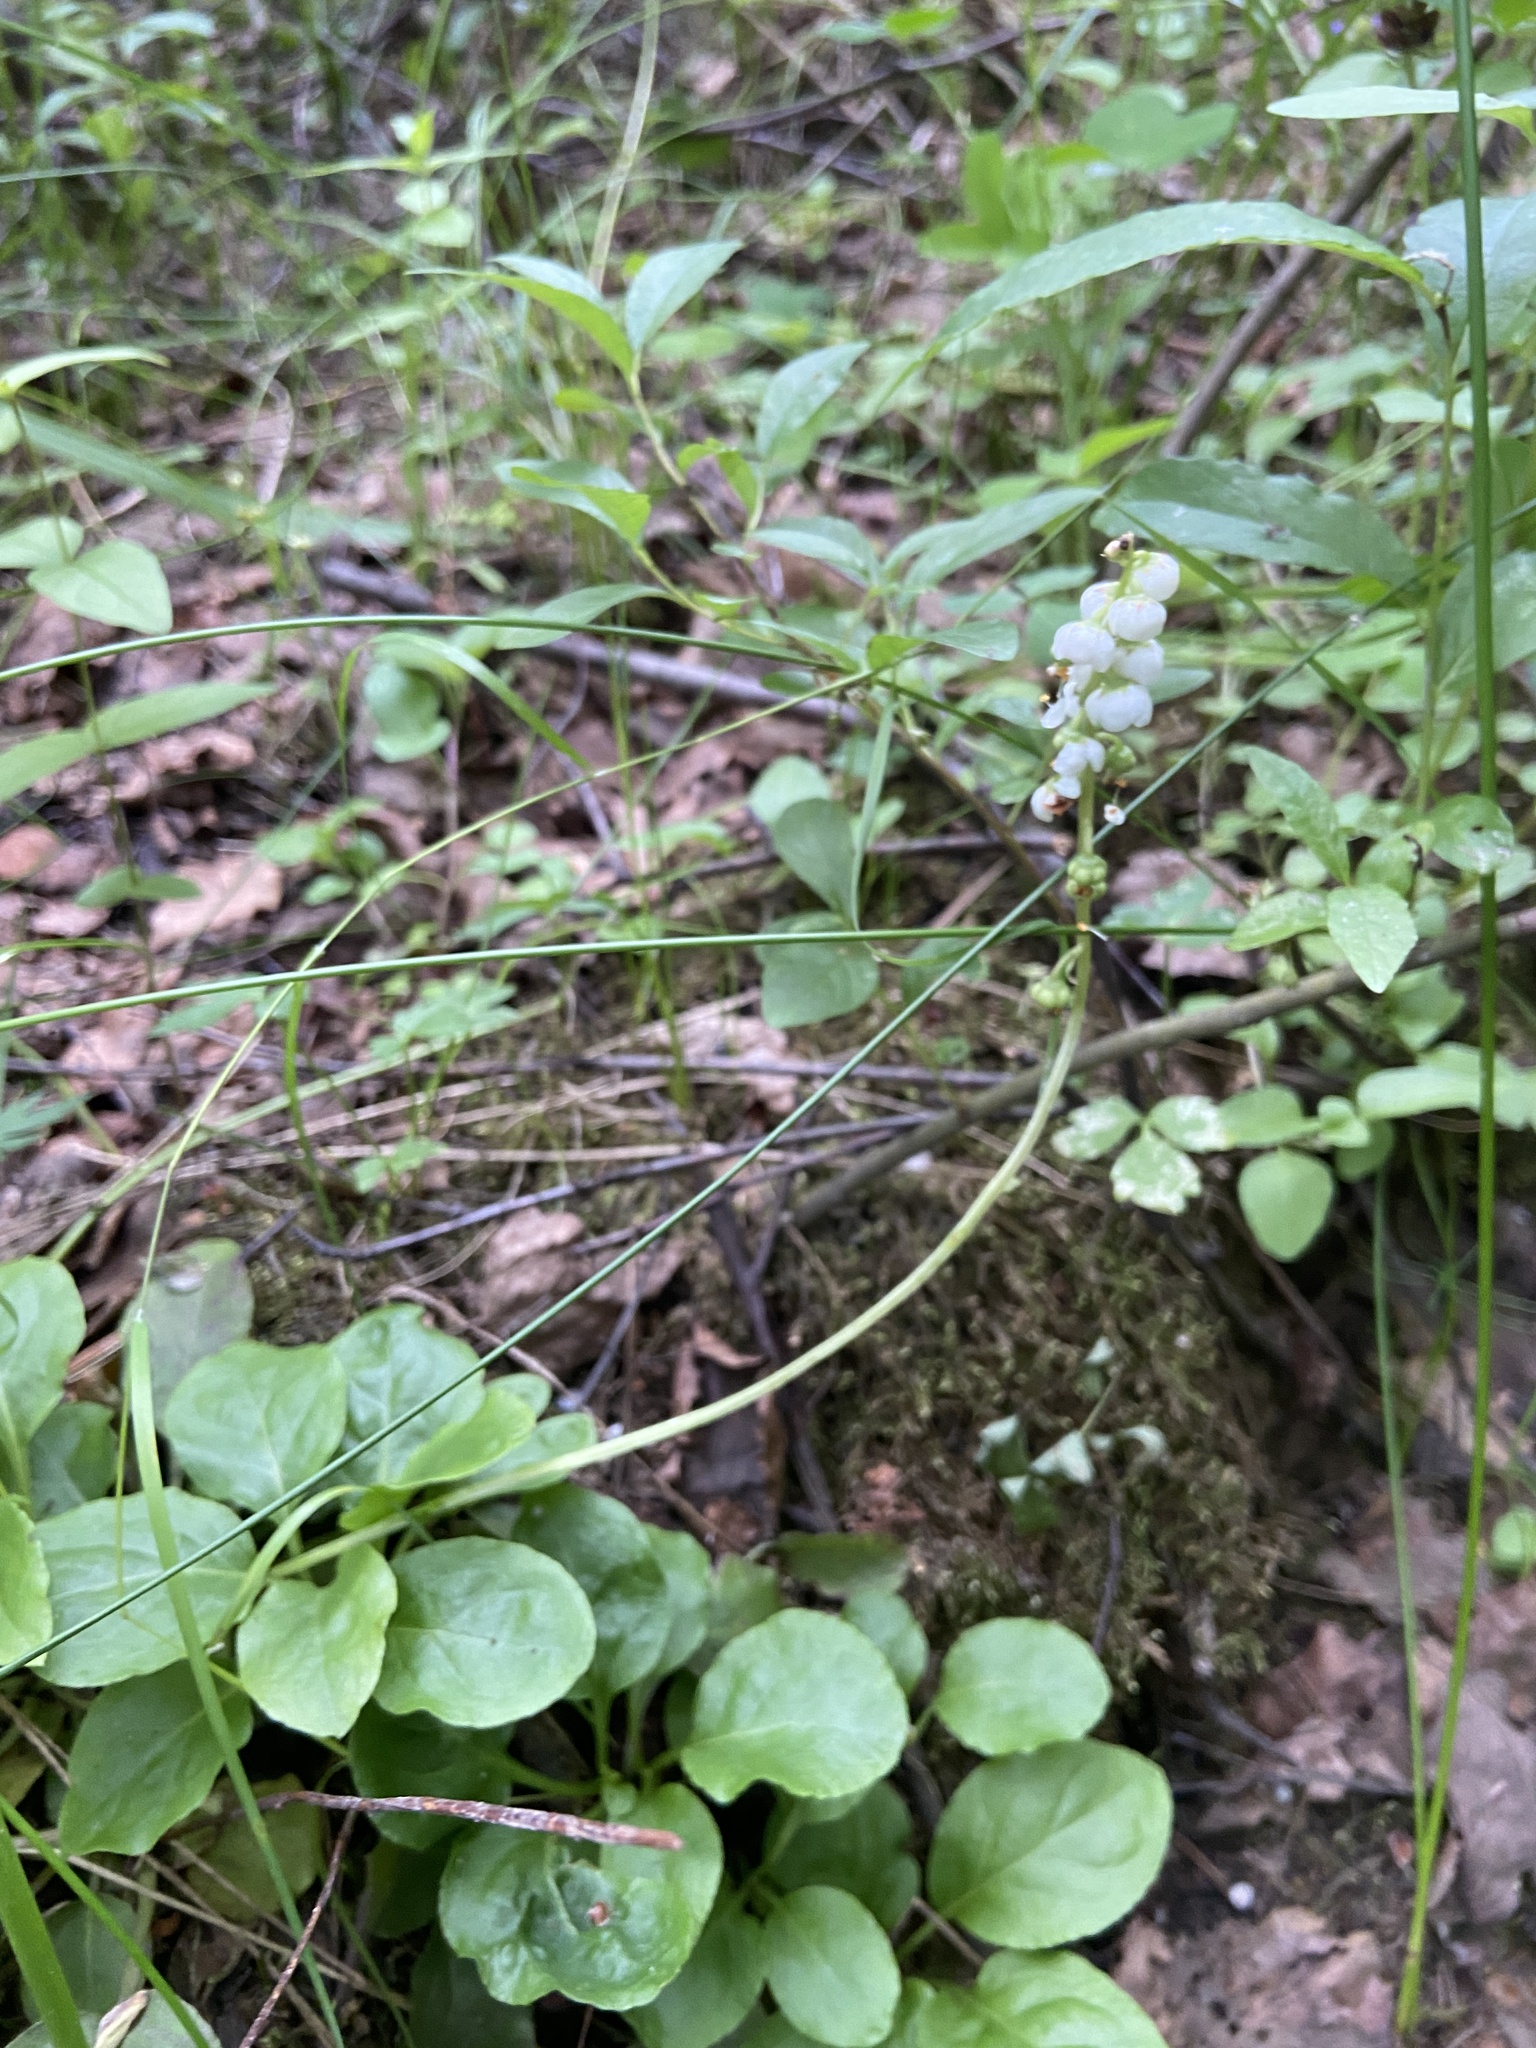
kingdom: Plantae
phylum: Tracheophyta
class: Magnoliopsida
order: Ericales
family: Ericaceae
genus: Pyrola
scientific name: Pyrola minor
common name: Common wintergreen
